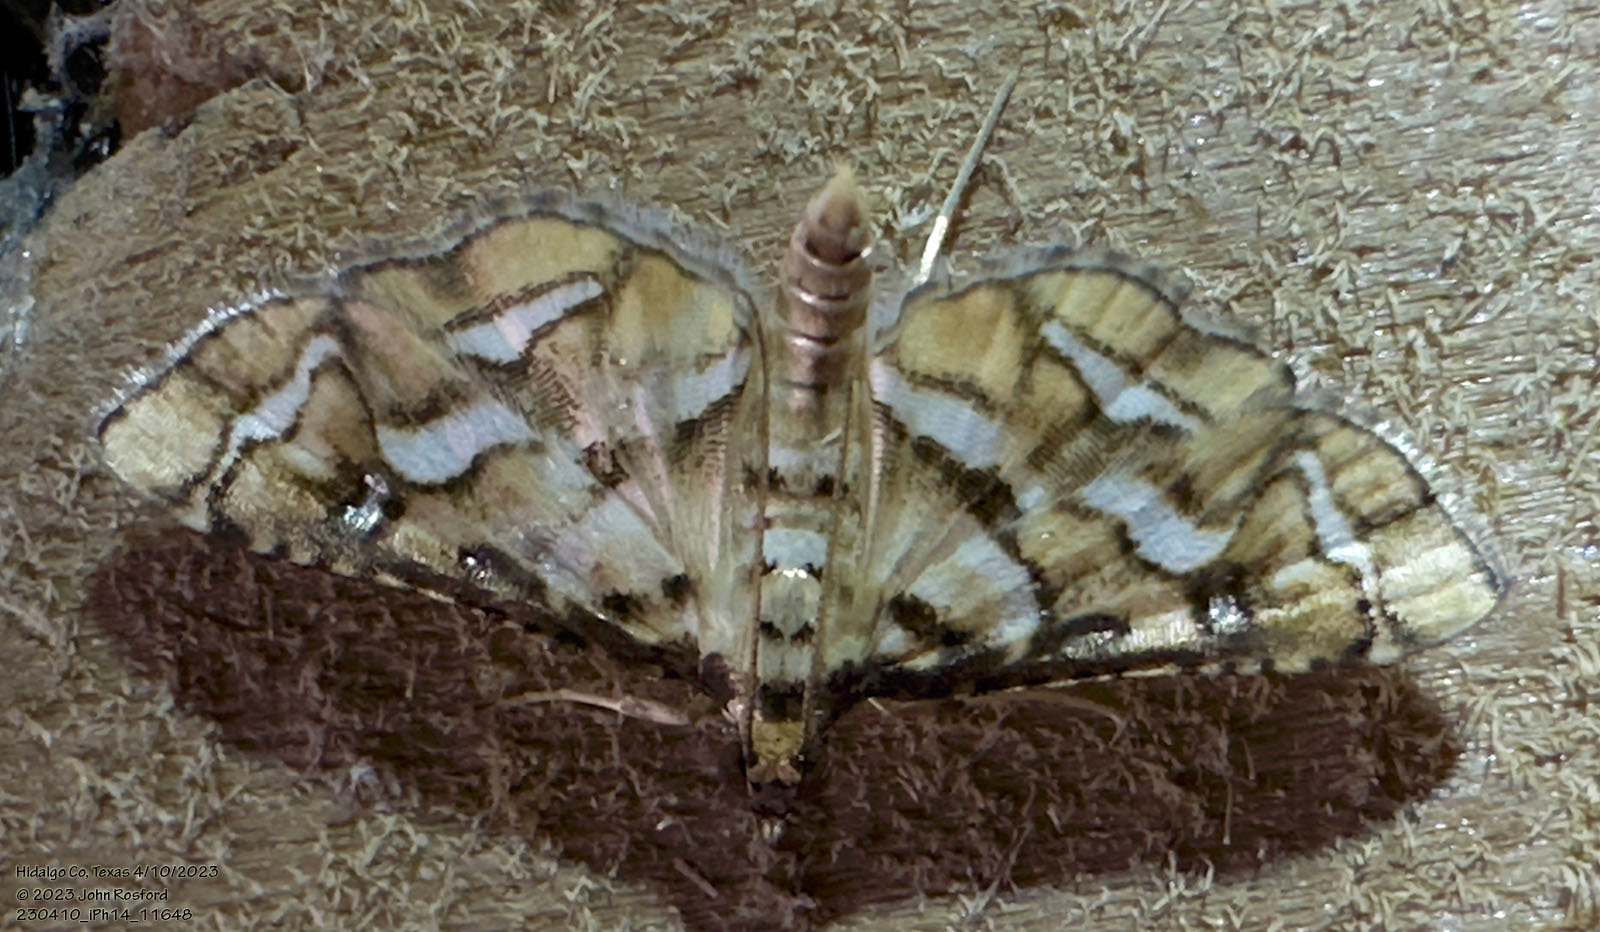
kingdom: Animalia
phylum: Arthropoda
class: Insecta
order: Lepidoptera
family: Crambidae
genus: Hileithia
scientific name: Hileithia magualis
